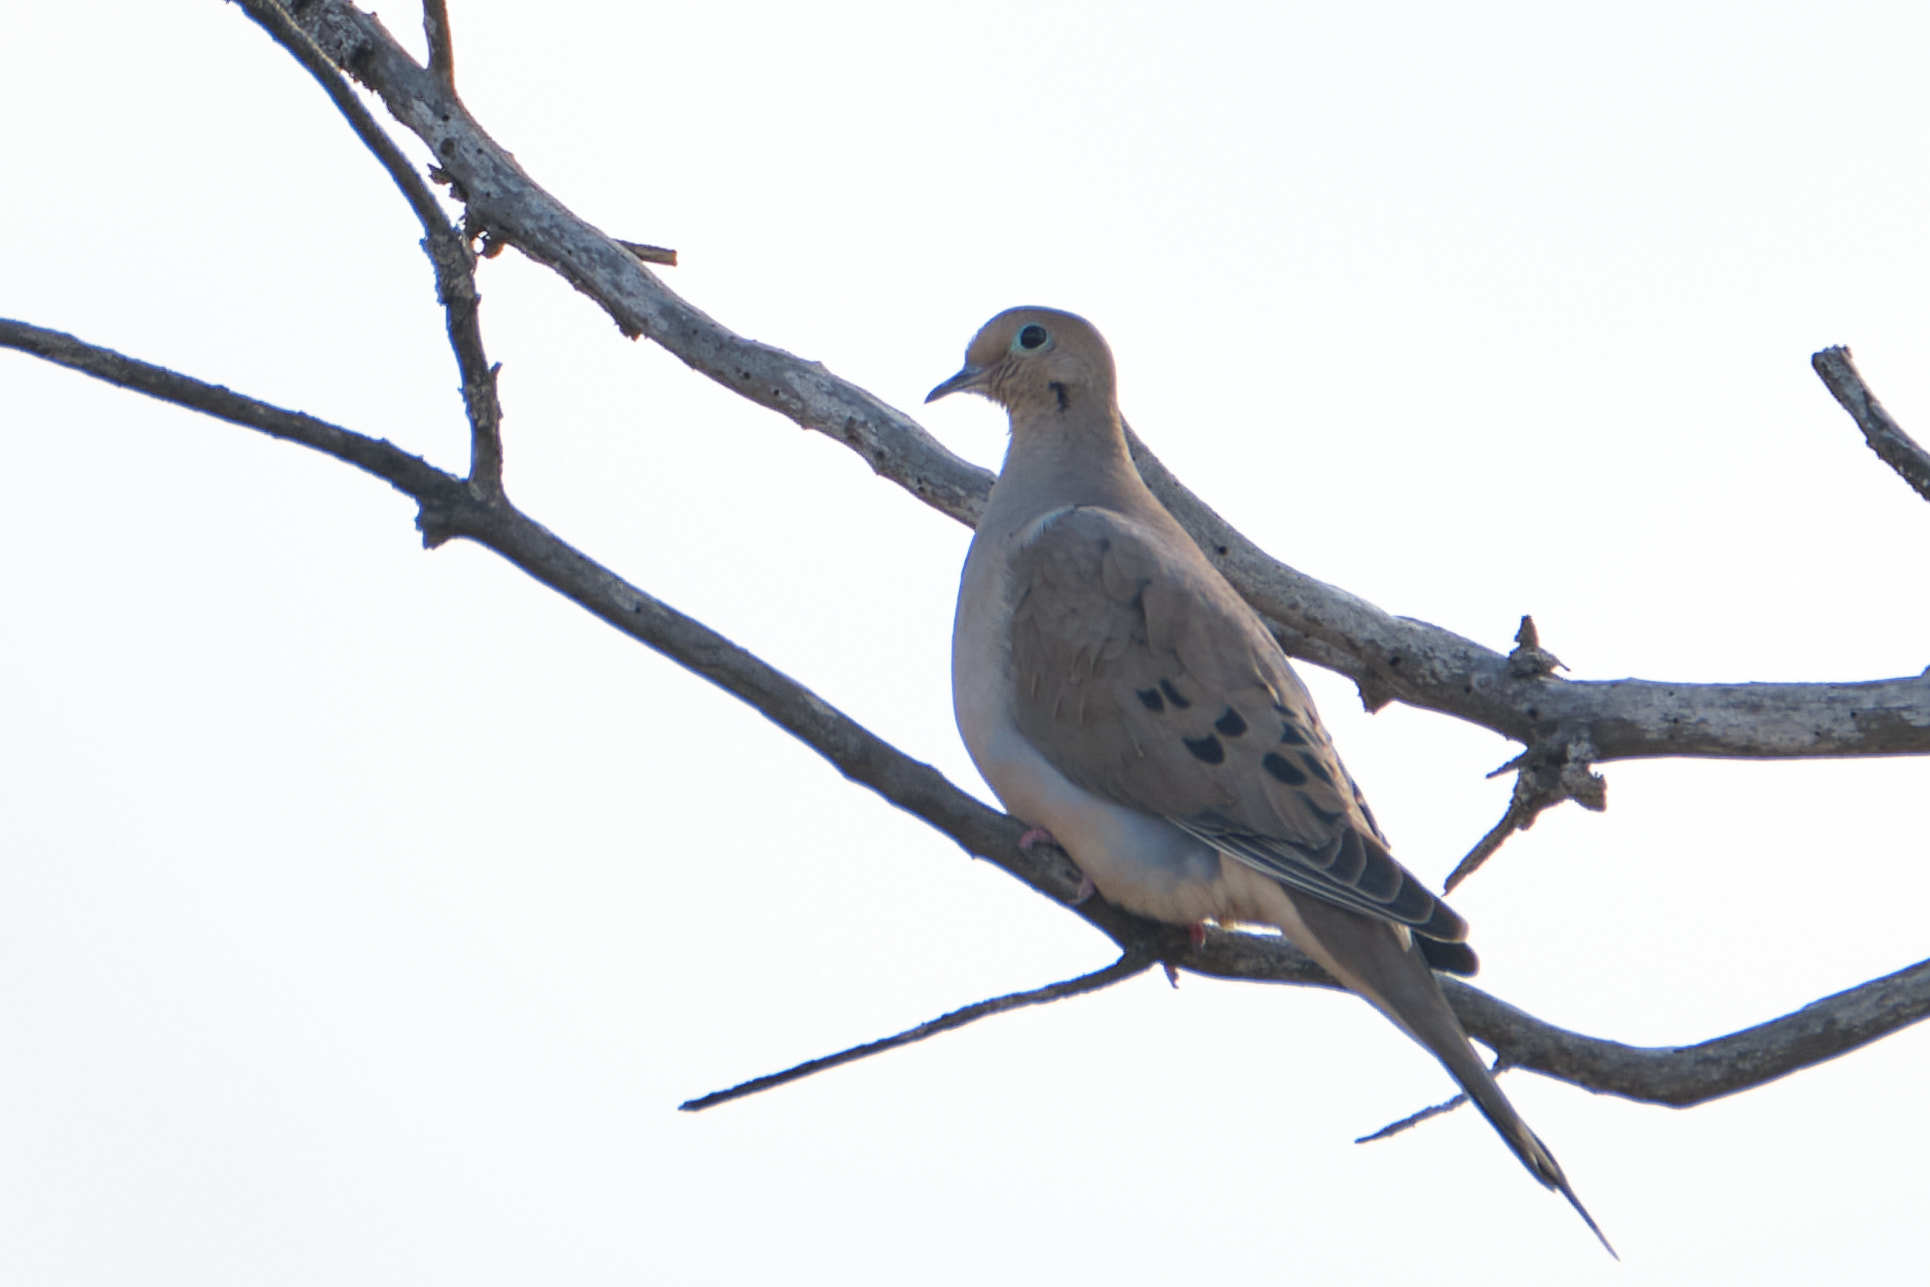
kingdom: Animalia
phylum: Chordata
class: Aves
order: Columbiformes
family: Columbidae
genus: Zenaida
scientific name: Zenaida macroura
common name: Mourning dove
